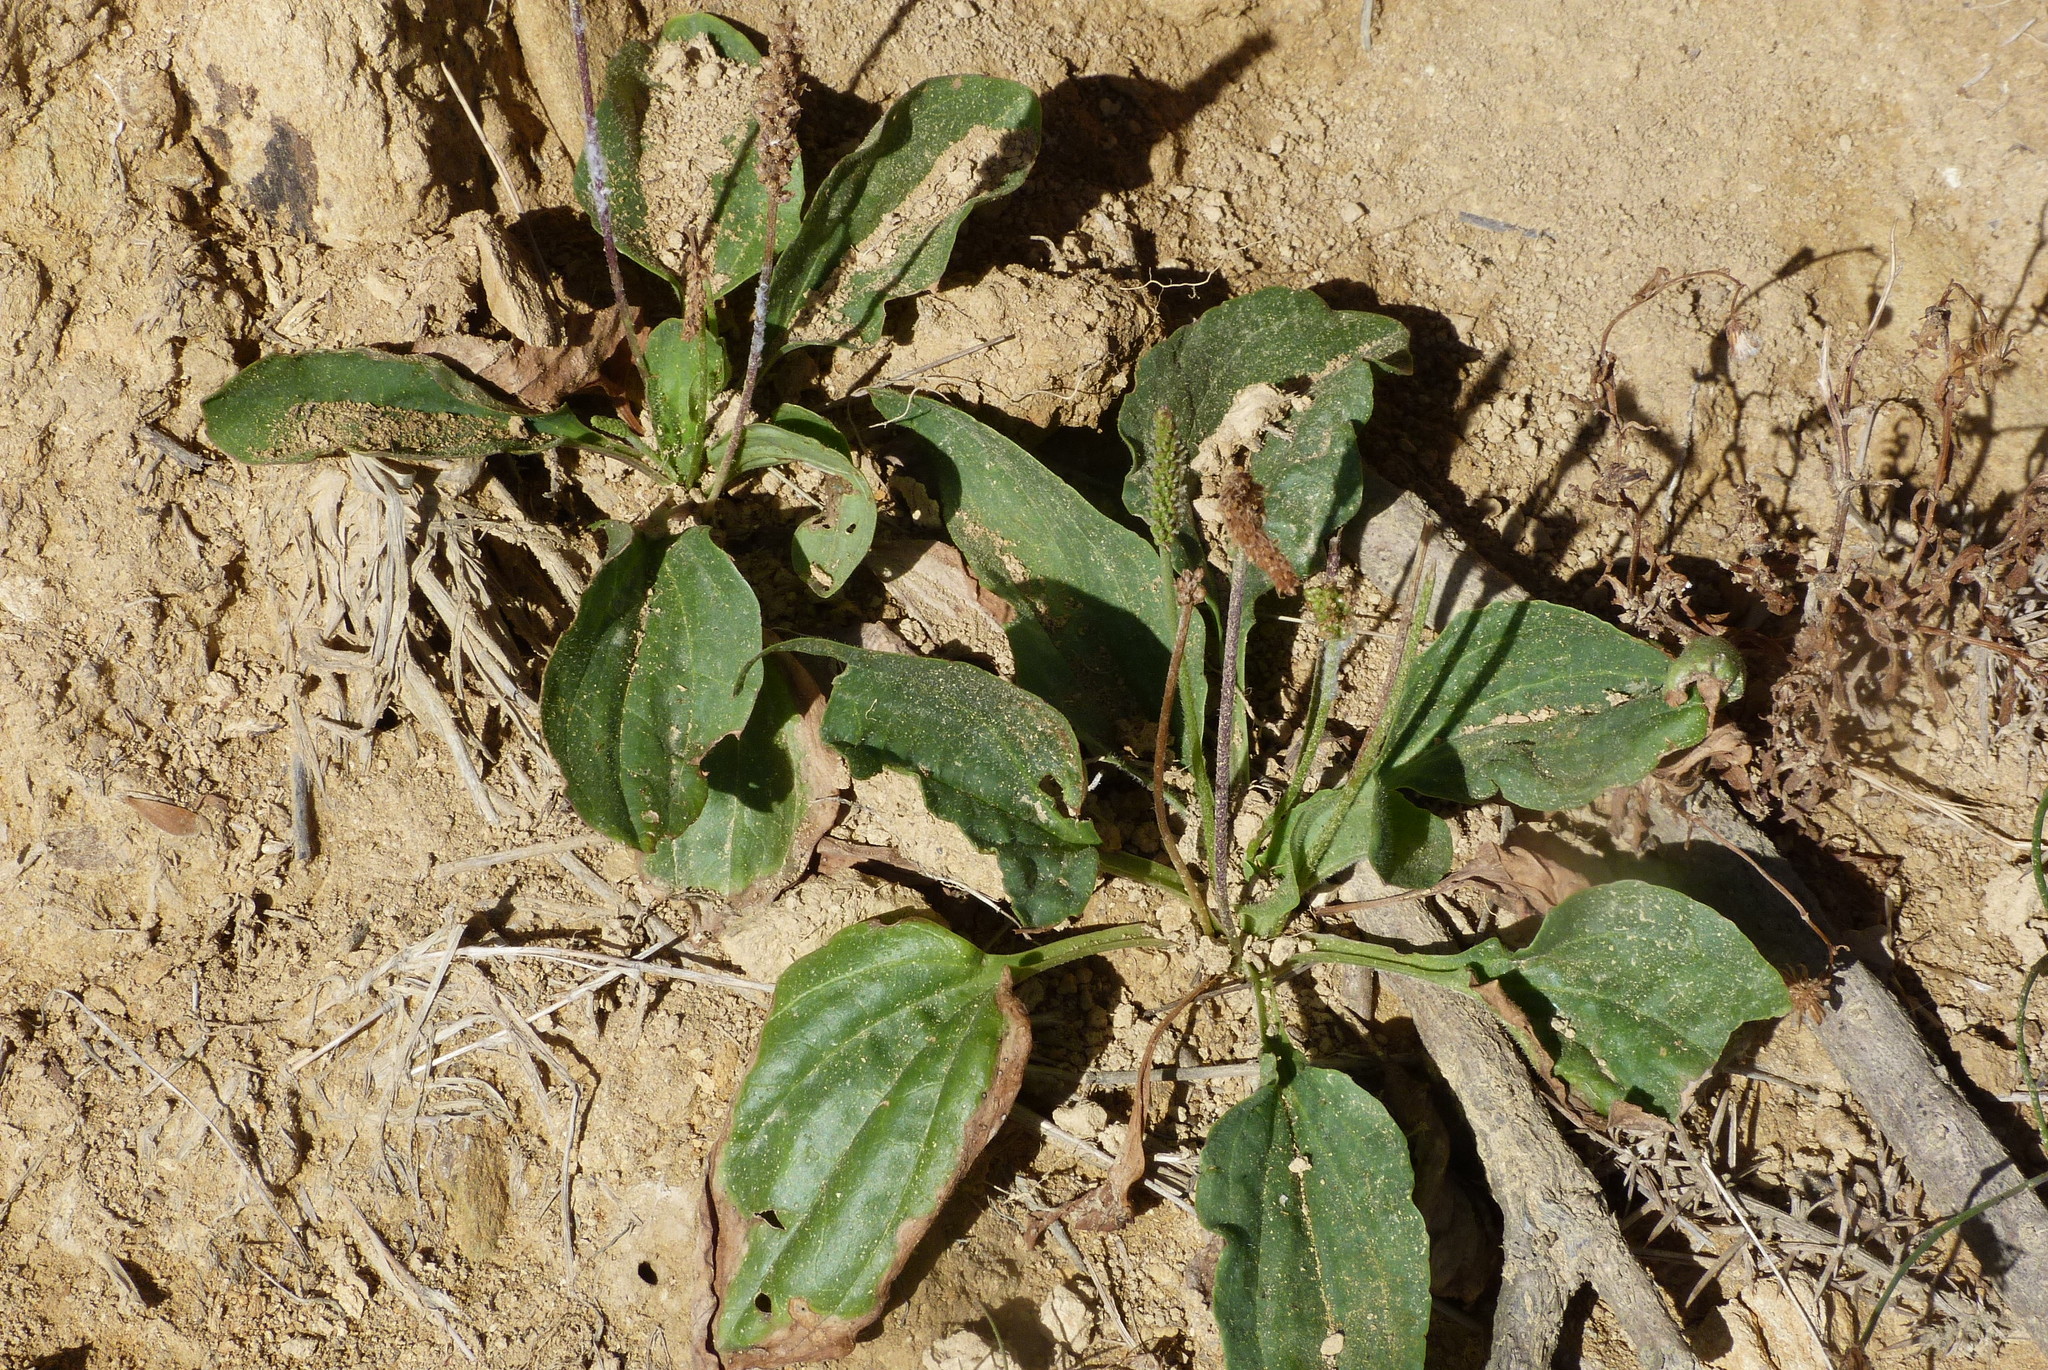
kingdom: Plantae
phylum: Tracheophyta
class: Magnoliopsida
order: Lamiales
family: Plantaginaceae
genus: Plantago
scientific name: Plantago major
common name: Common plantain
